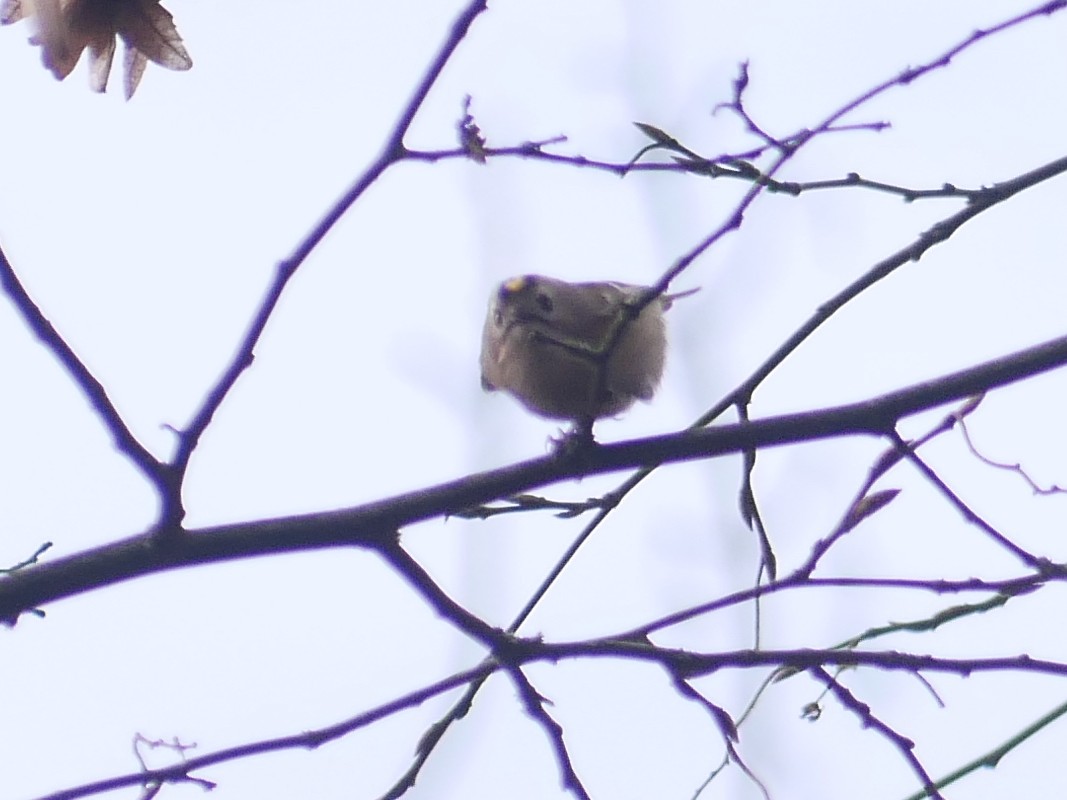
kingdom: Animalia
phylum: Chordata
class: Aves
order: Passeriformes
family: Regulidae
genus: Regulus
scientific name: Regulus regulus
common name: Goldcrest
